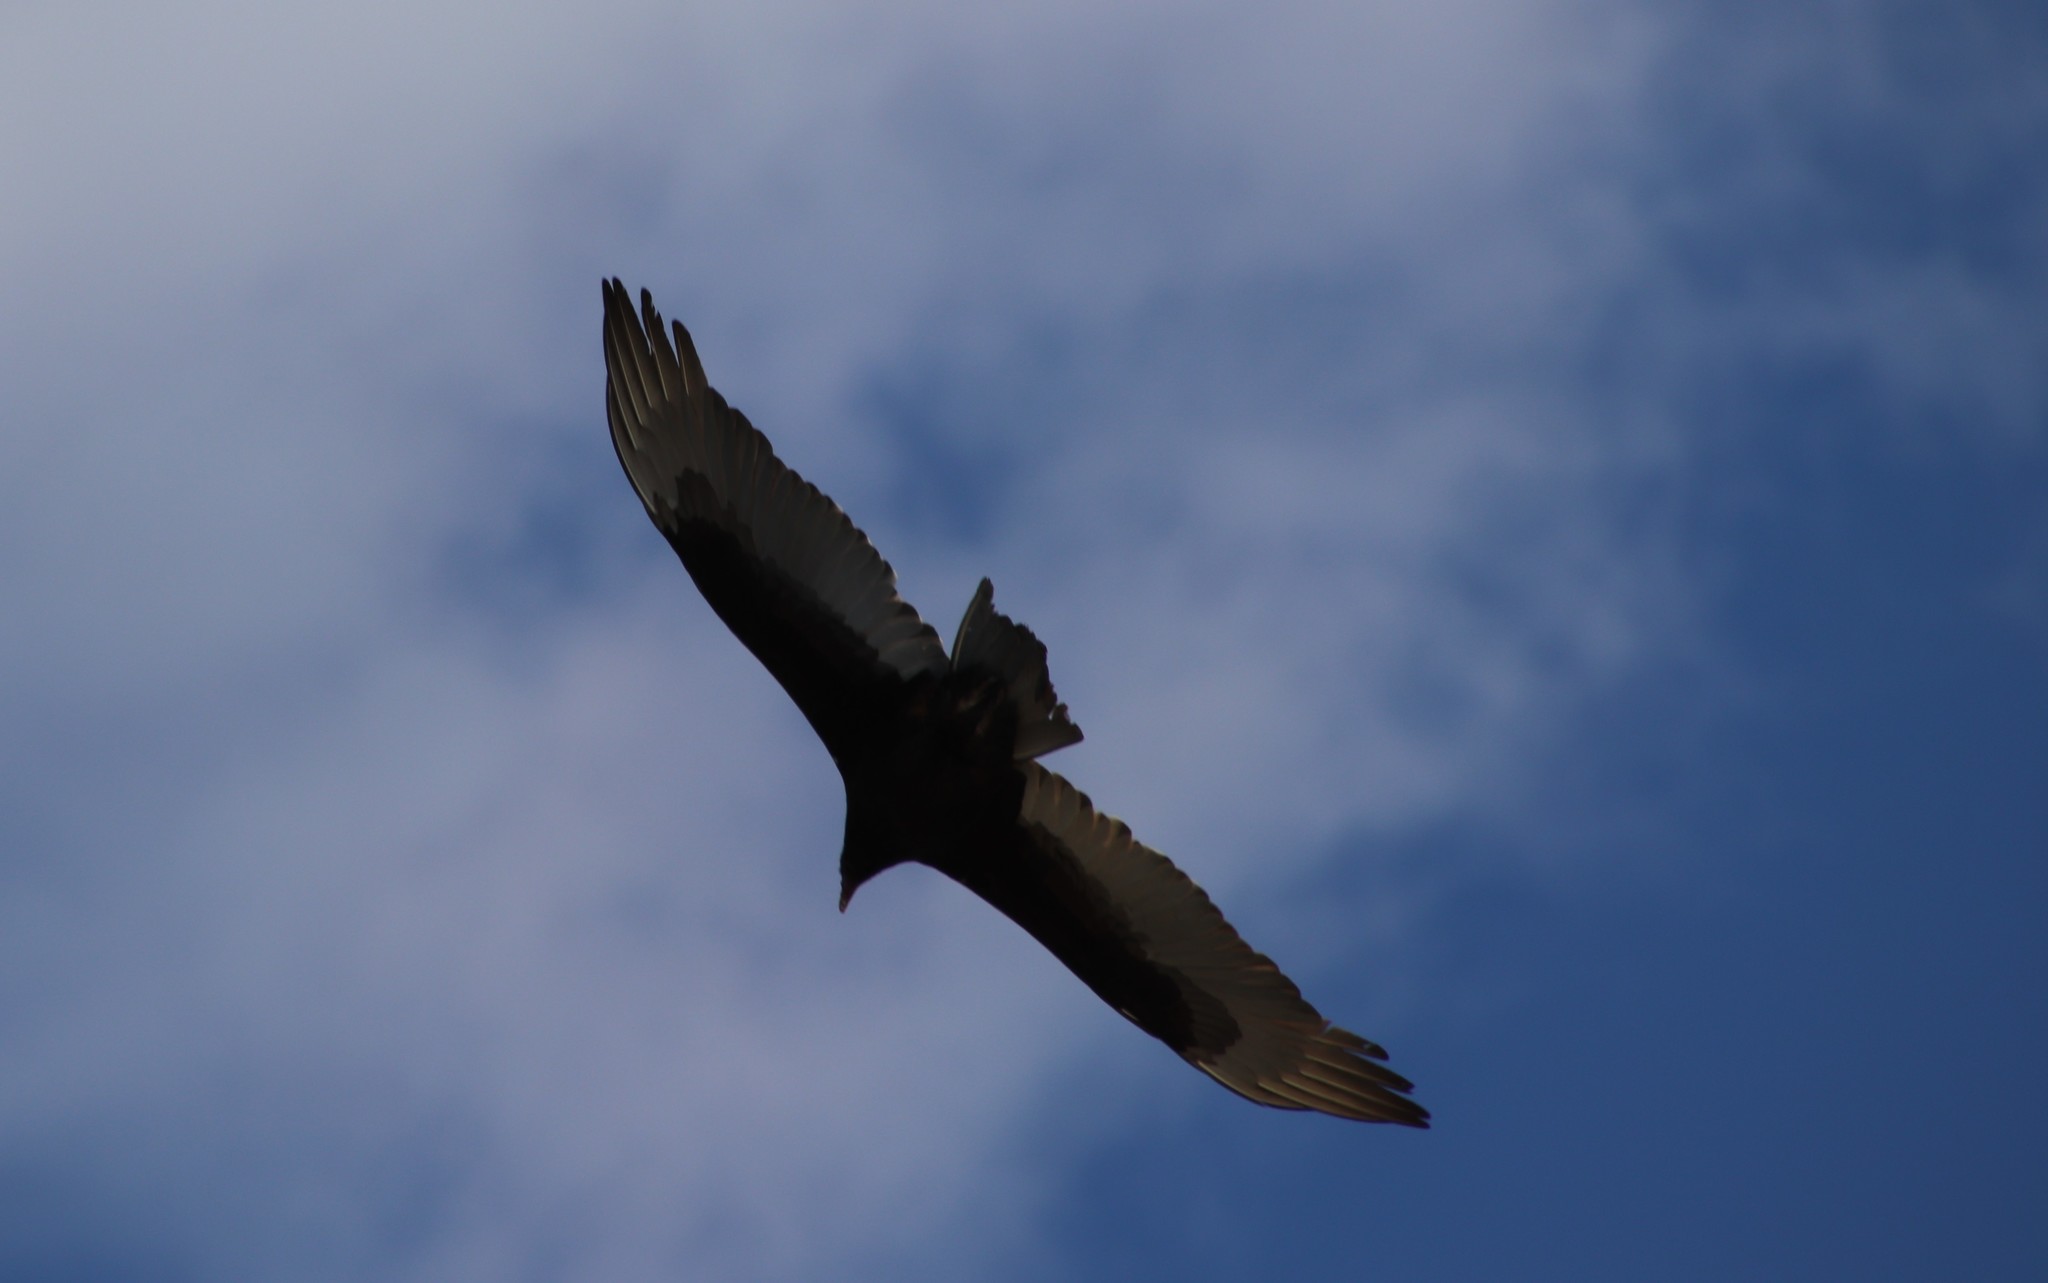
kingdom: Animalia
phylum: Chordata
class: Aves
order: Accipitriformes
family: Cathartidae
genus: Cathartes
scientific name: Cathartes aura
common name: Turkey vulture
